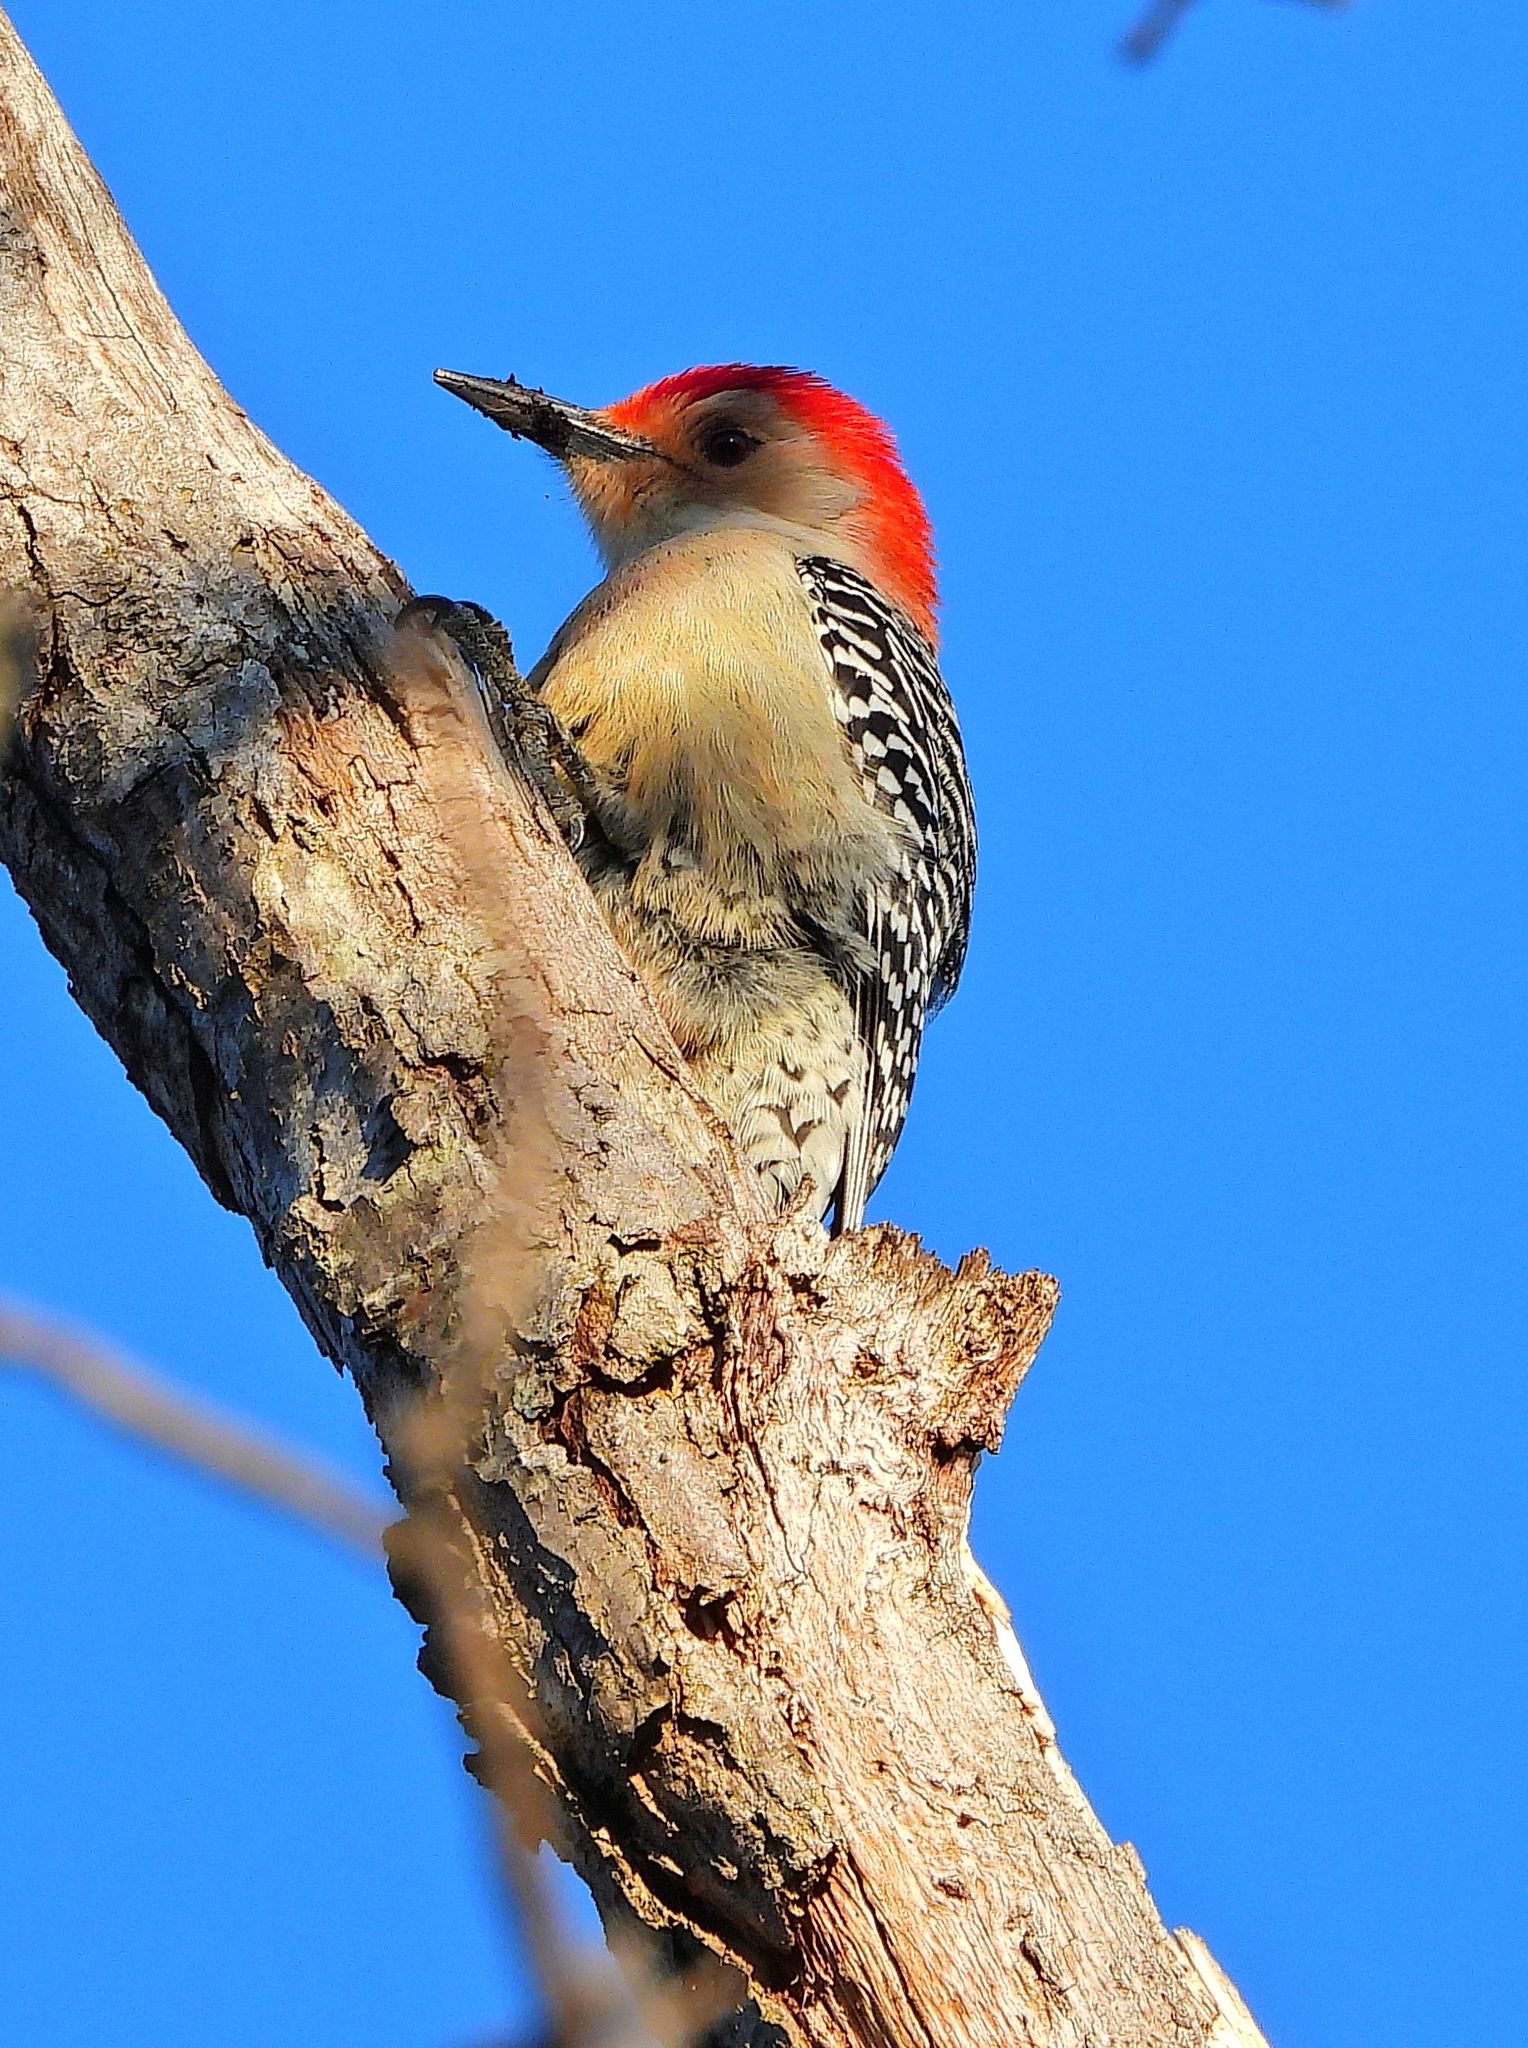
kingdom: Animalia
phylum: Chordata
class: Aves
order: Piciformes
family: Picidae
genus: Melanerpes
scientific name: Melanerpes carolinus
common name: Red-bellied woodpecker
